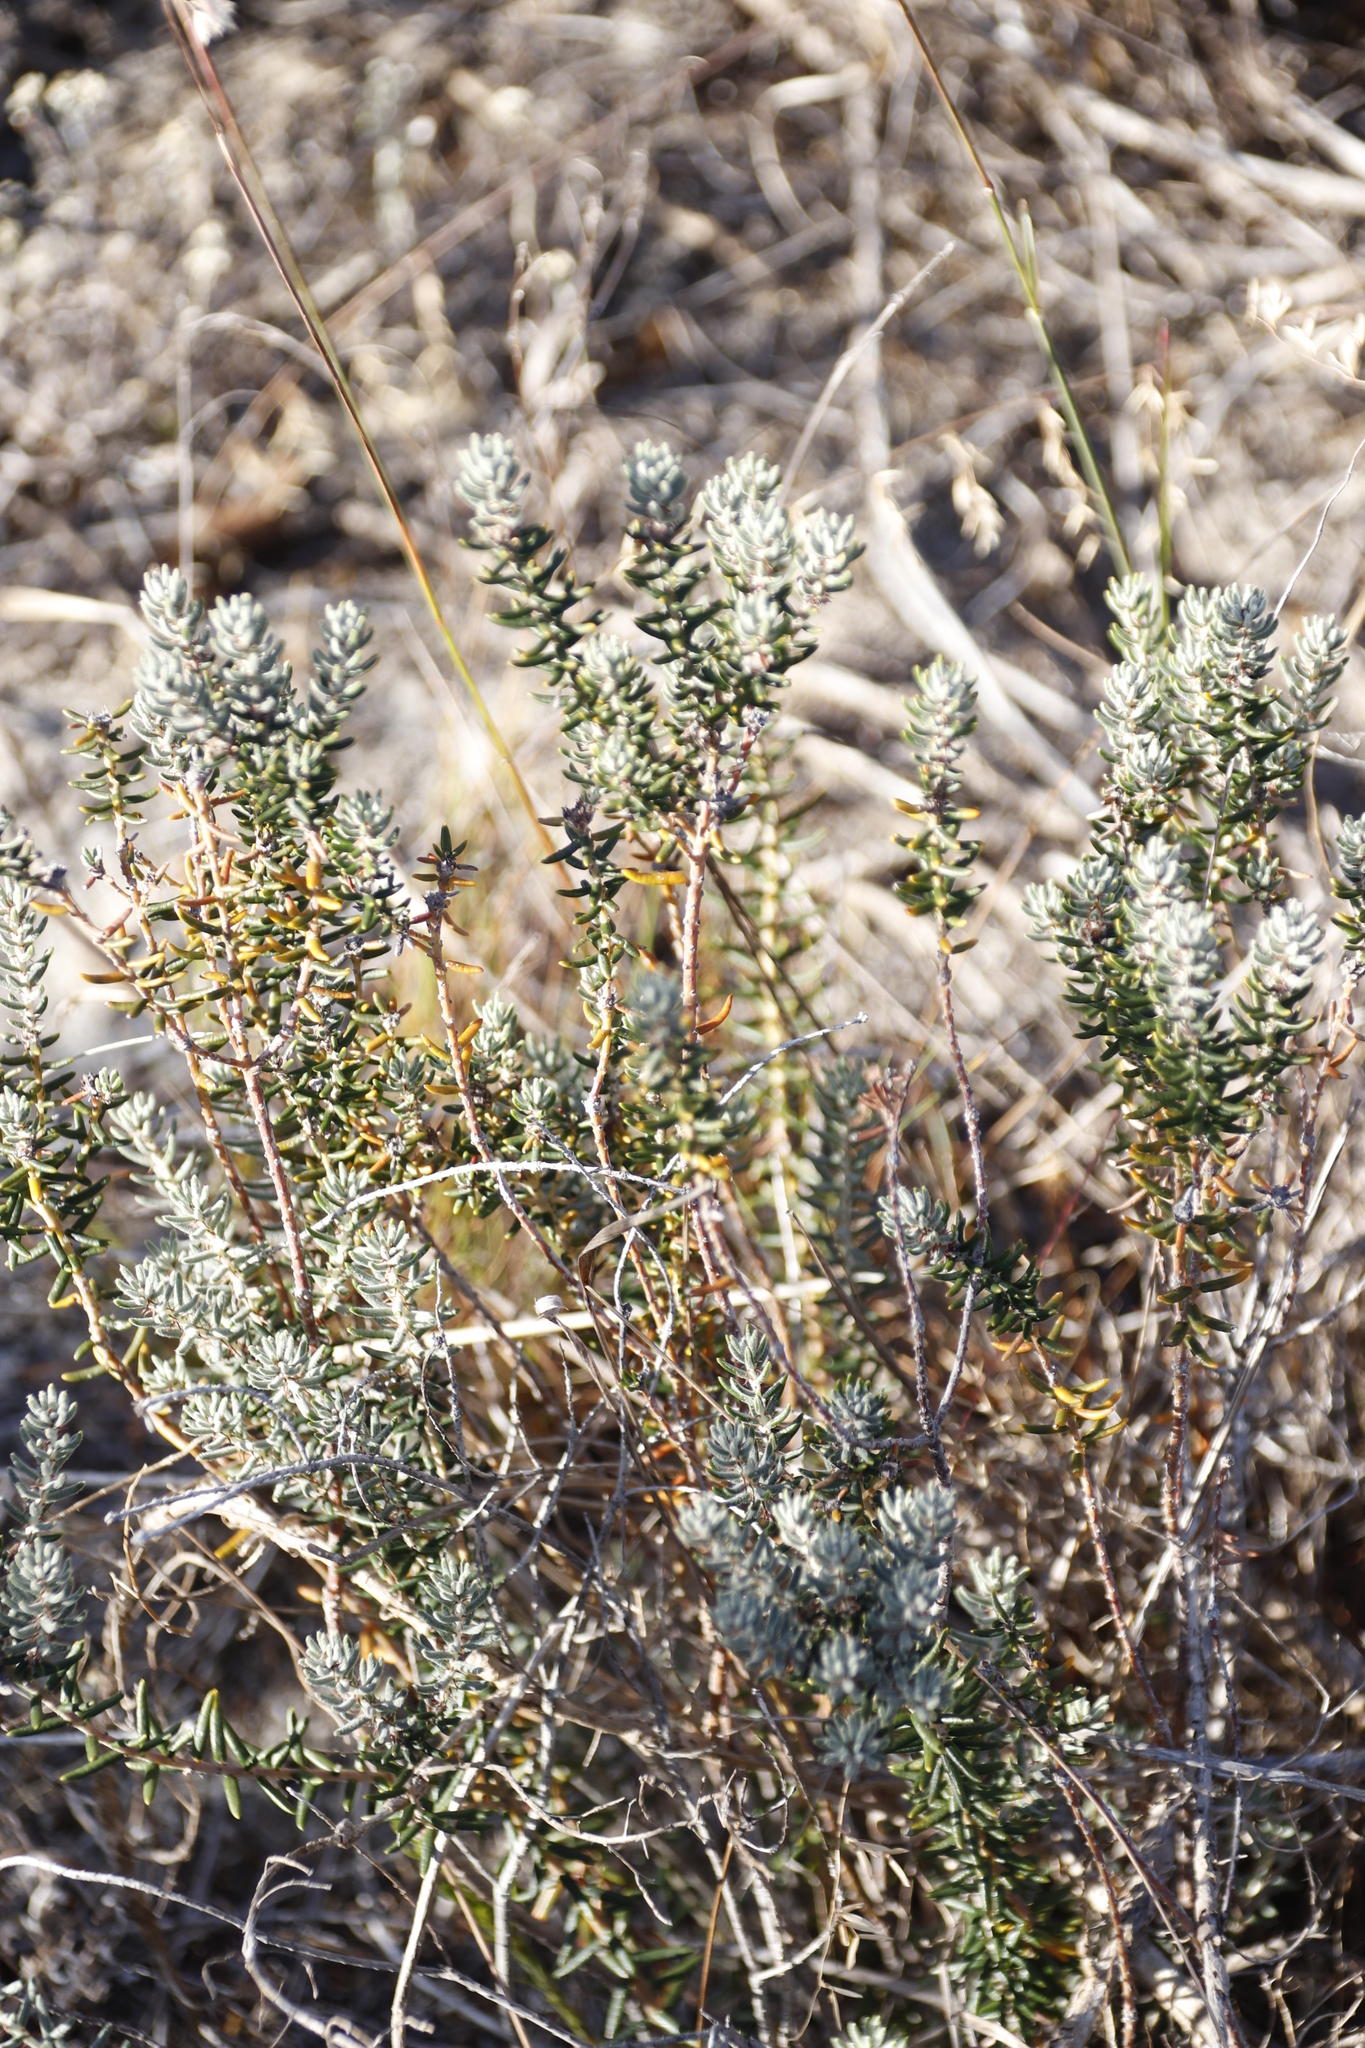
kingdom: Plantae
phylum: Tracheophyta
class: Magnoliopsida
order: Rosales
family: Rhamnaceae
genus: Trichocephalus
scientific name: Trichocephalus stipularis
